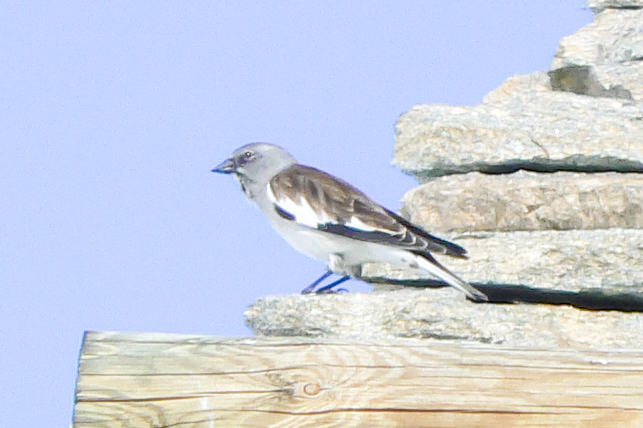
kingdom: Animalia
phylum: Chordata
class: Aves
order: Passeriformes
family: Passeridae
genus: Montifringilla
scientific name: Montifringilla nivalis
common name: White-winged snowfinch
